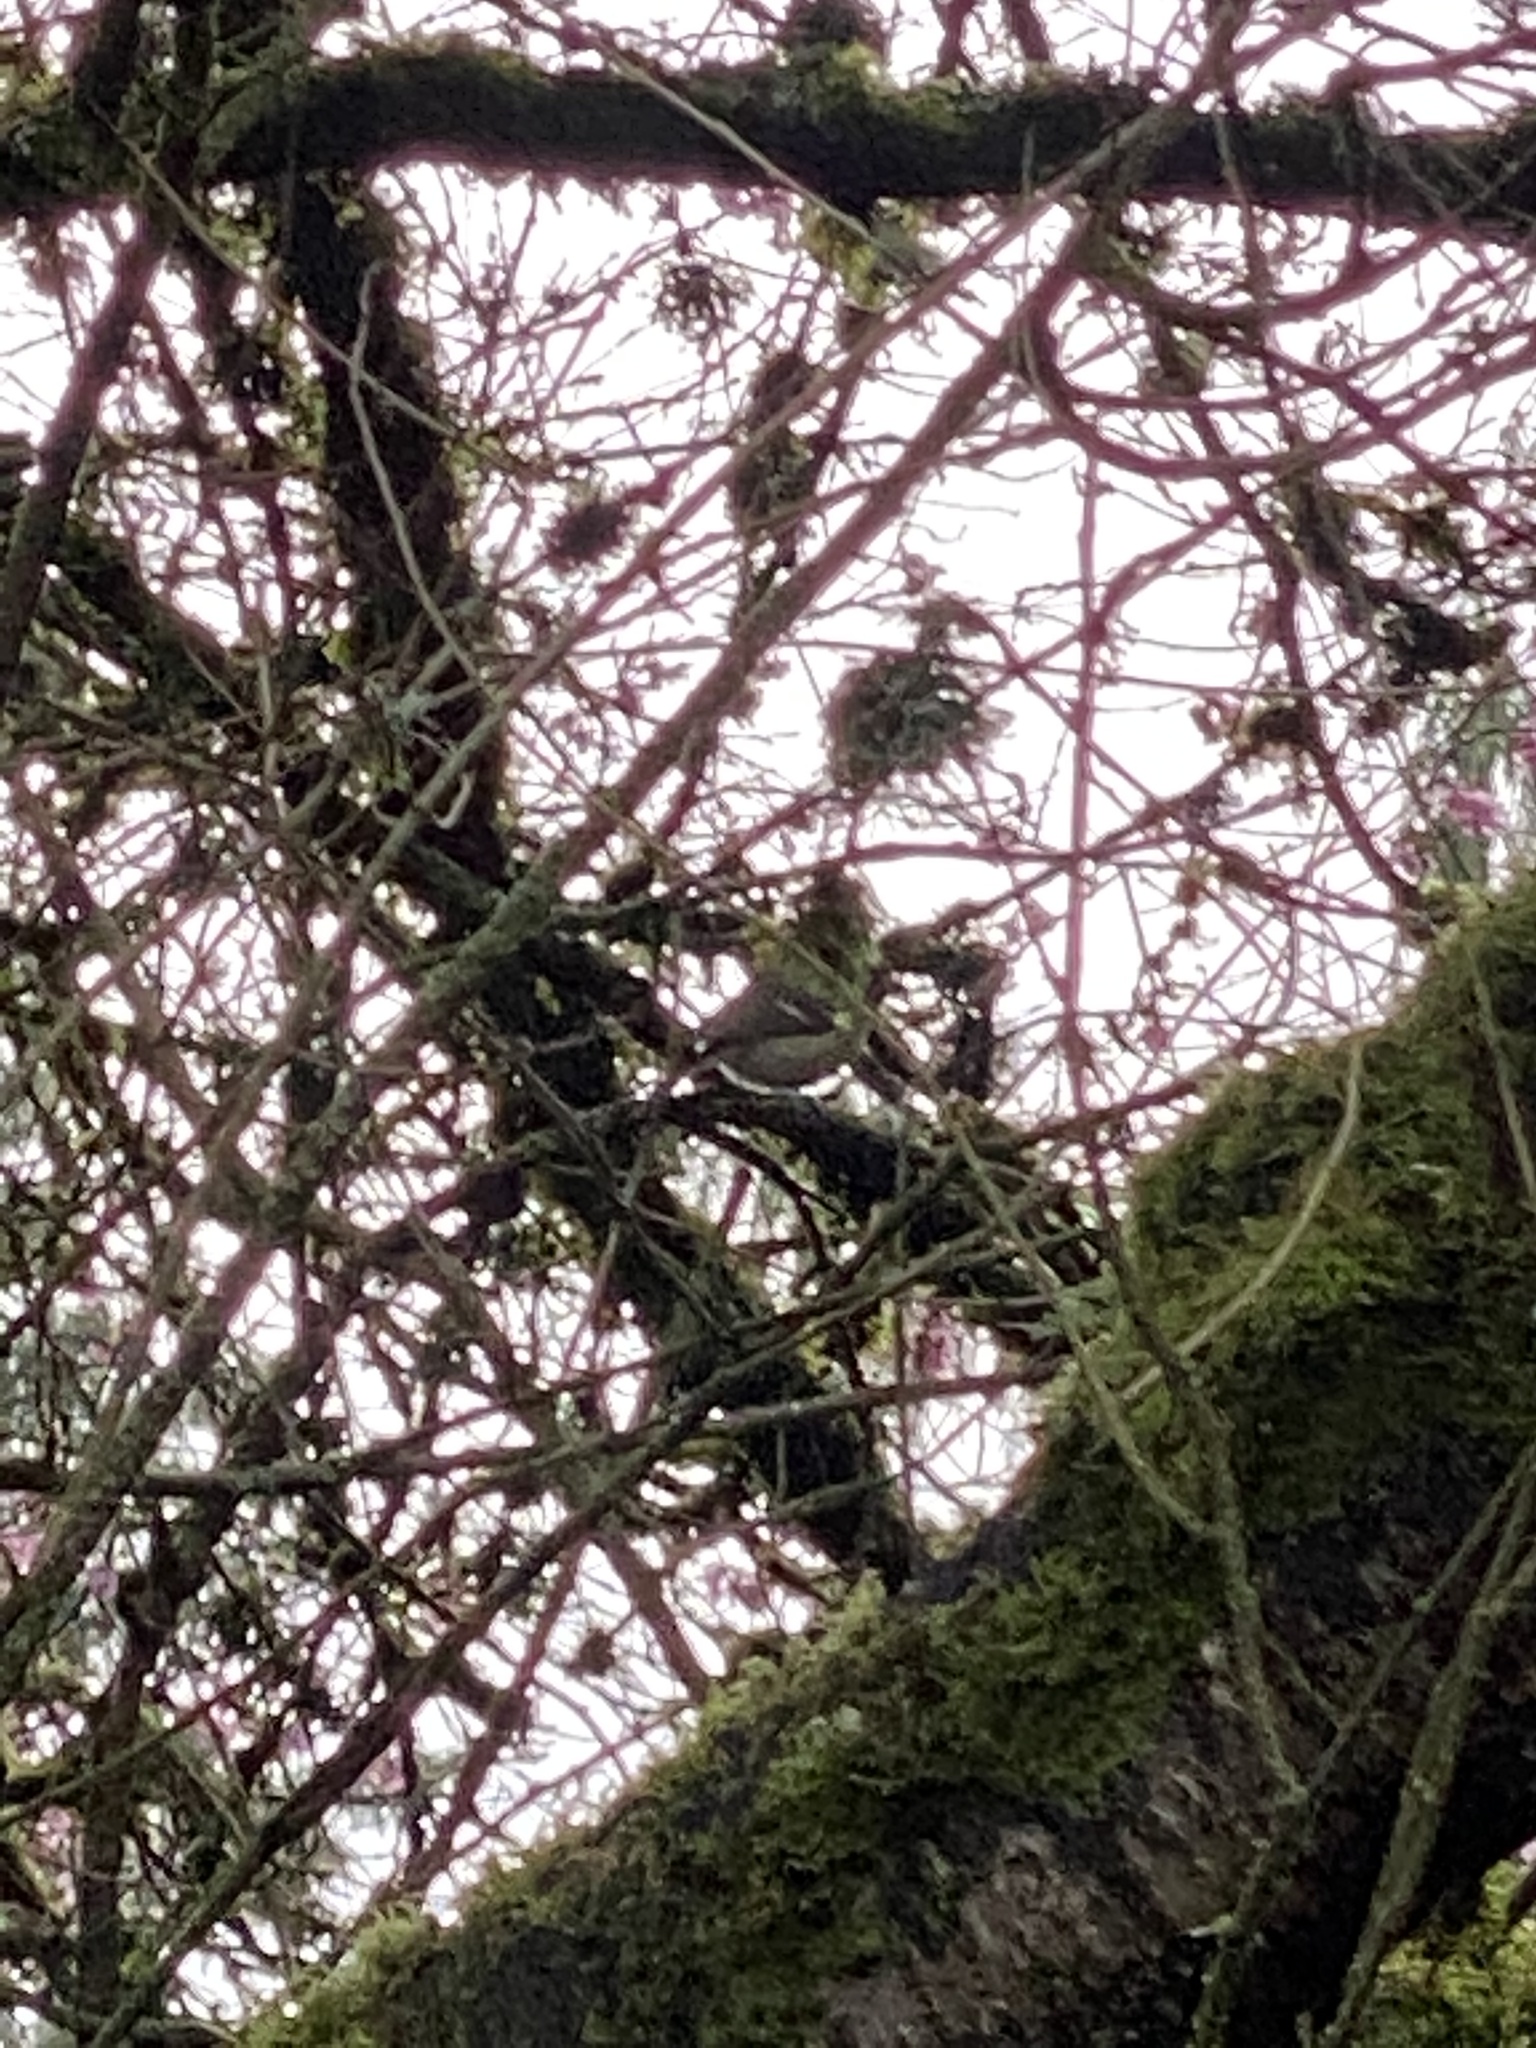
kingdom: Animalia
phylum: Chordata
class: Aves
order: Passeriformes
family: Vireonidae
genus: Vireo
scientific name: Vireo huttoni
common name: Hutton's vireo
